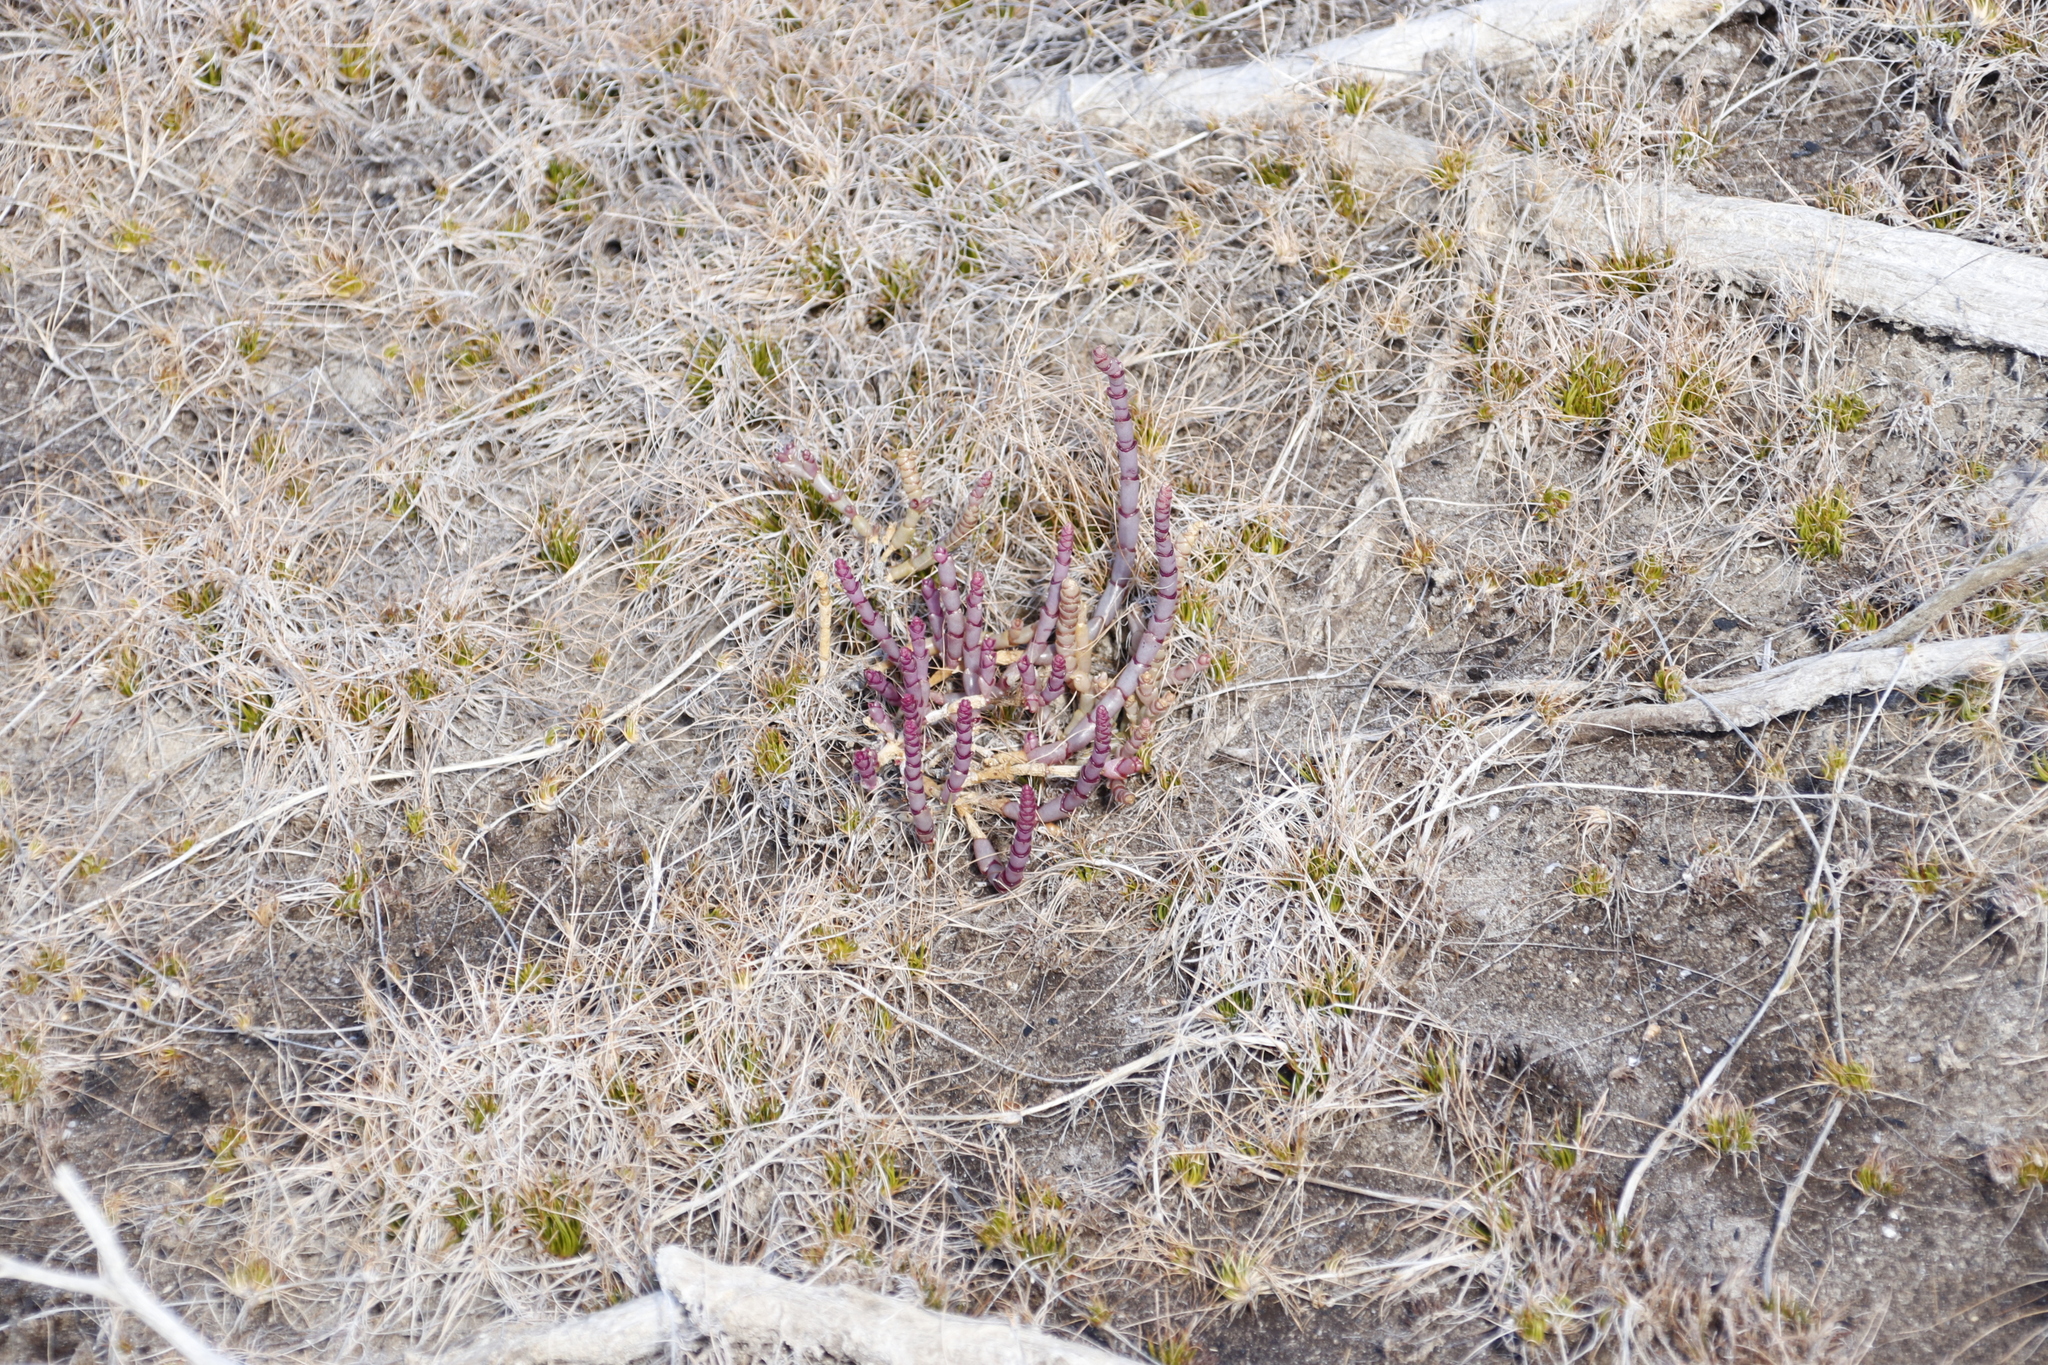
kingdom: Plantae
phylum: Tracheophyta
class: Magnoliopsida
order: Caryophyllales
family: Amaranthaceae
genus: Salicornia
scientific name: Salicornia natalensis
